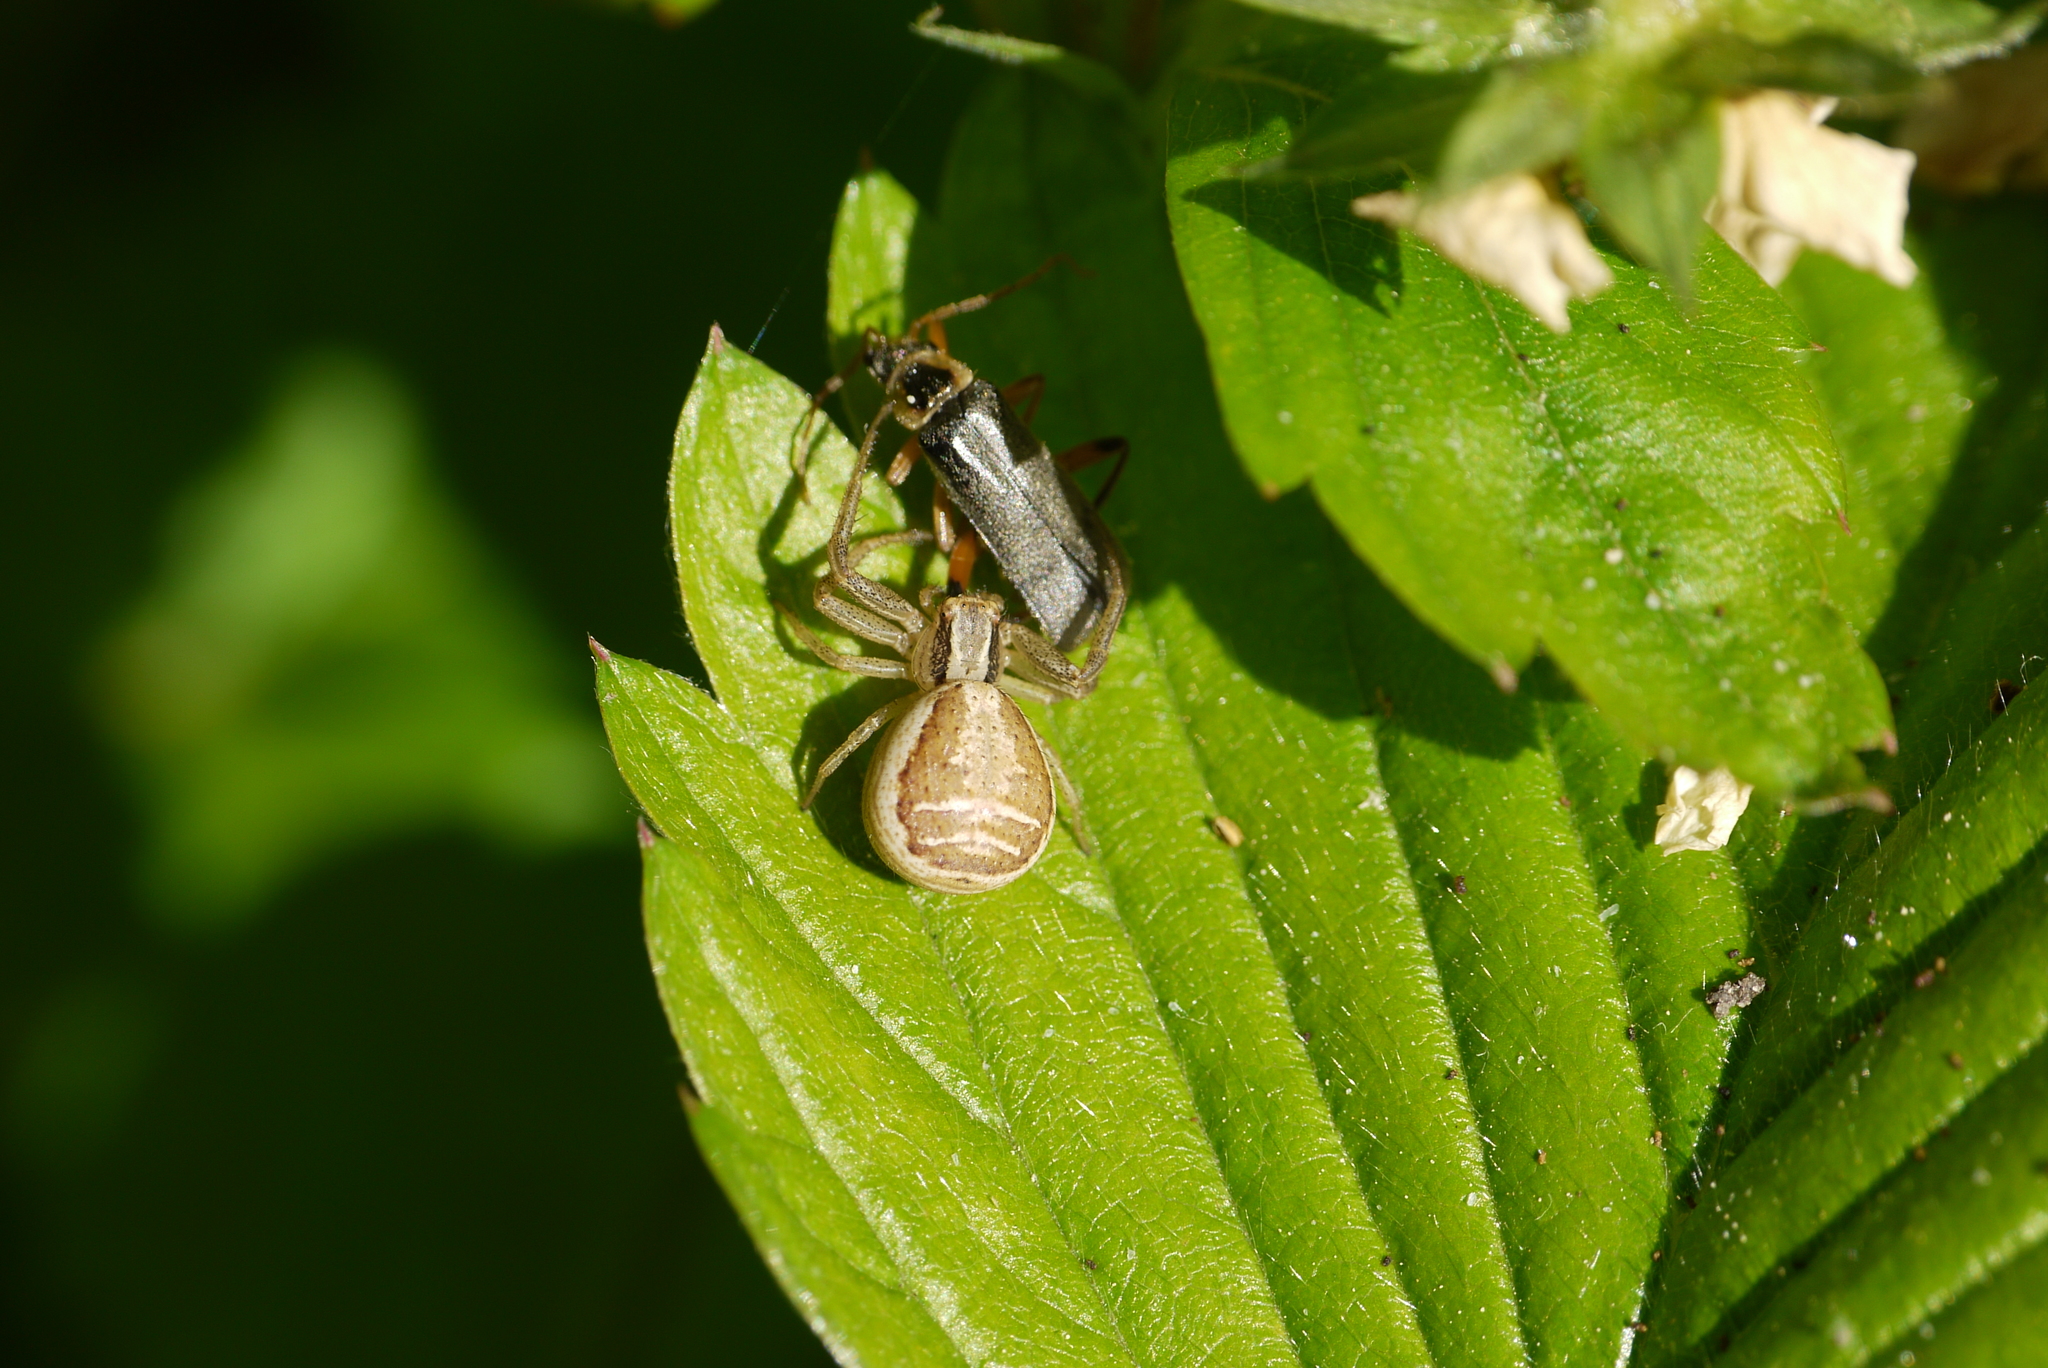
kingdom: Animalia
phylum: Arthropoda
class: Arachnida
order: Araneae
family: Thomisidae
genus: Xysticus
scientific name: Xysticus ulmi
